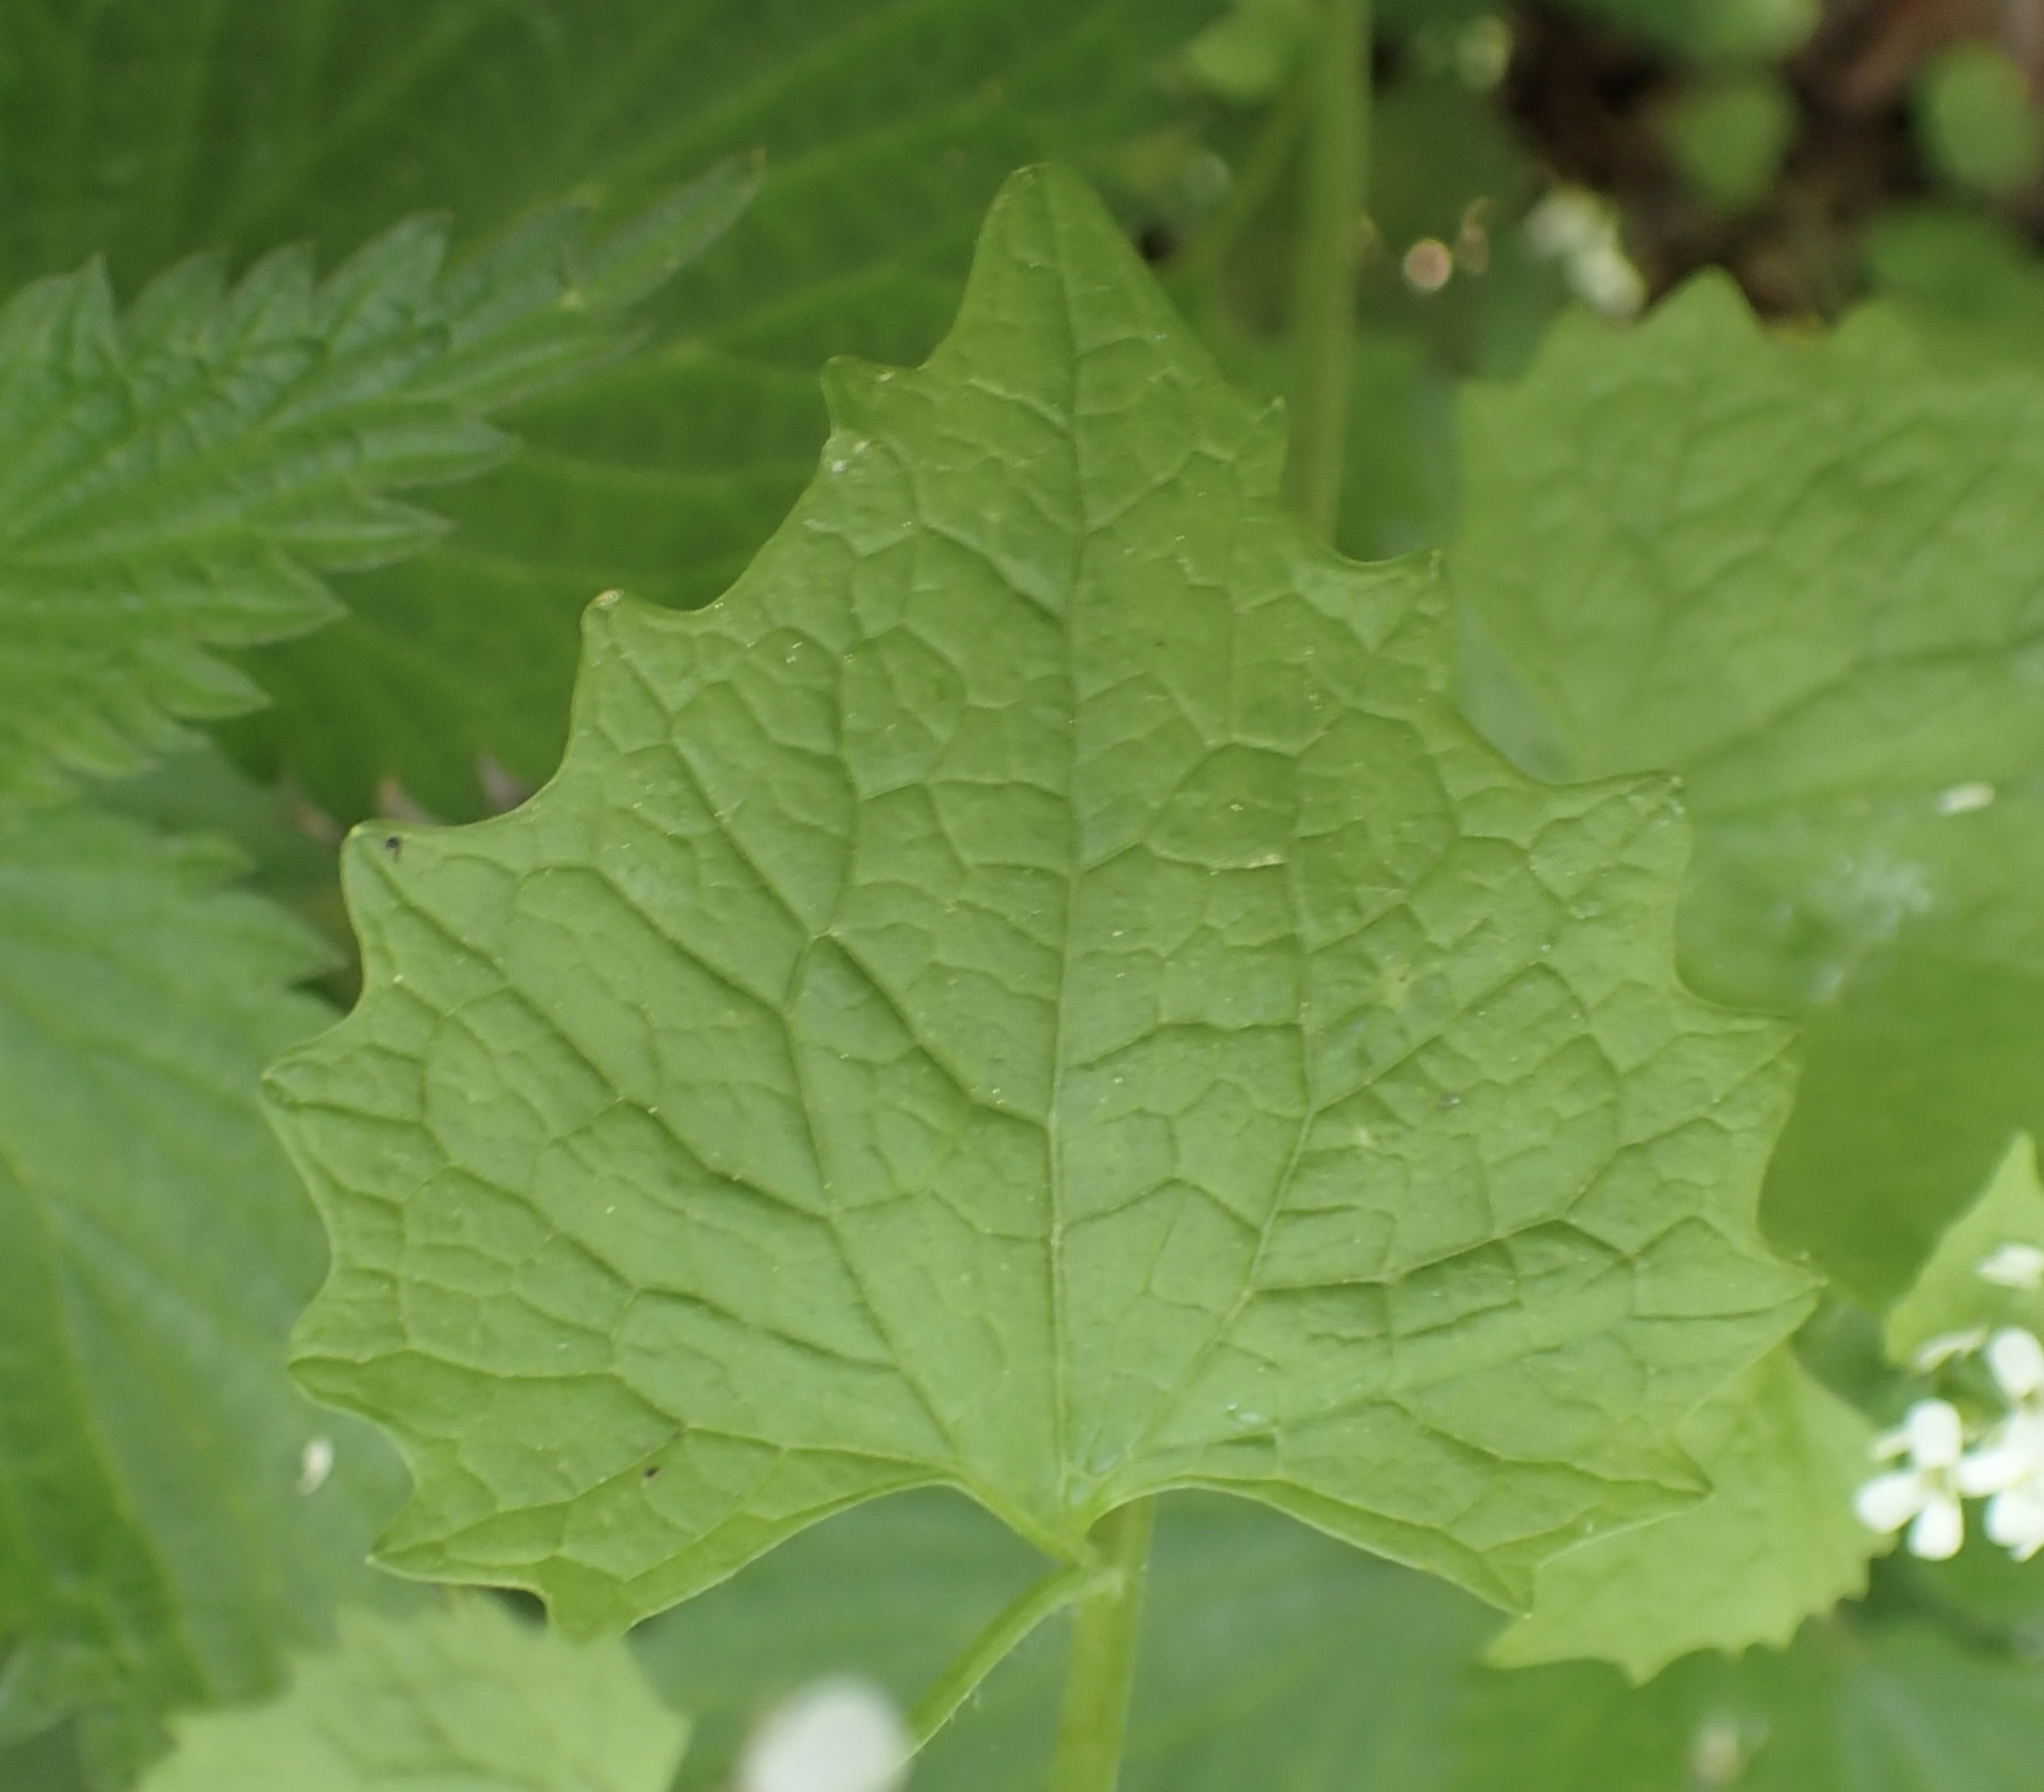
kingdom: Plantae
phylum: Tracheophyta
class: Magnoliopsida
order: Brassicales
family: Brassicaceae
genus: Alliaria
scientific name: Alliaria petiolata
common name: Garlic mustard
